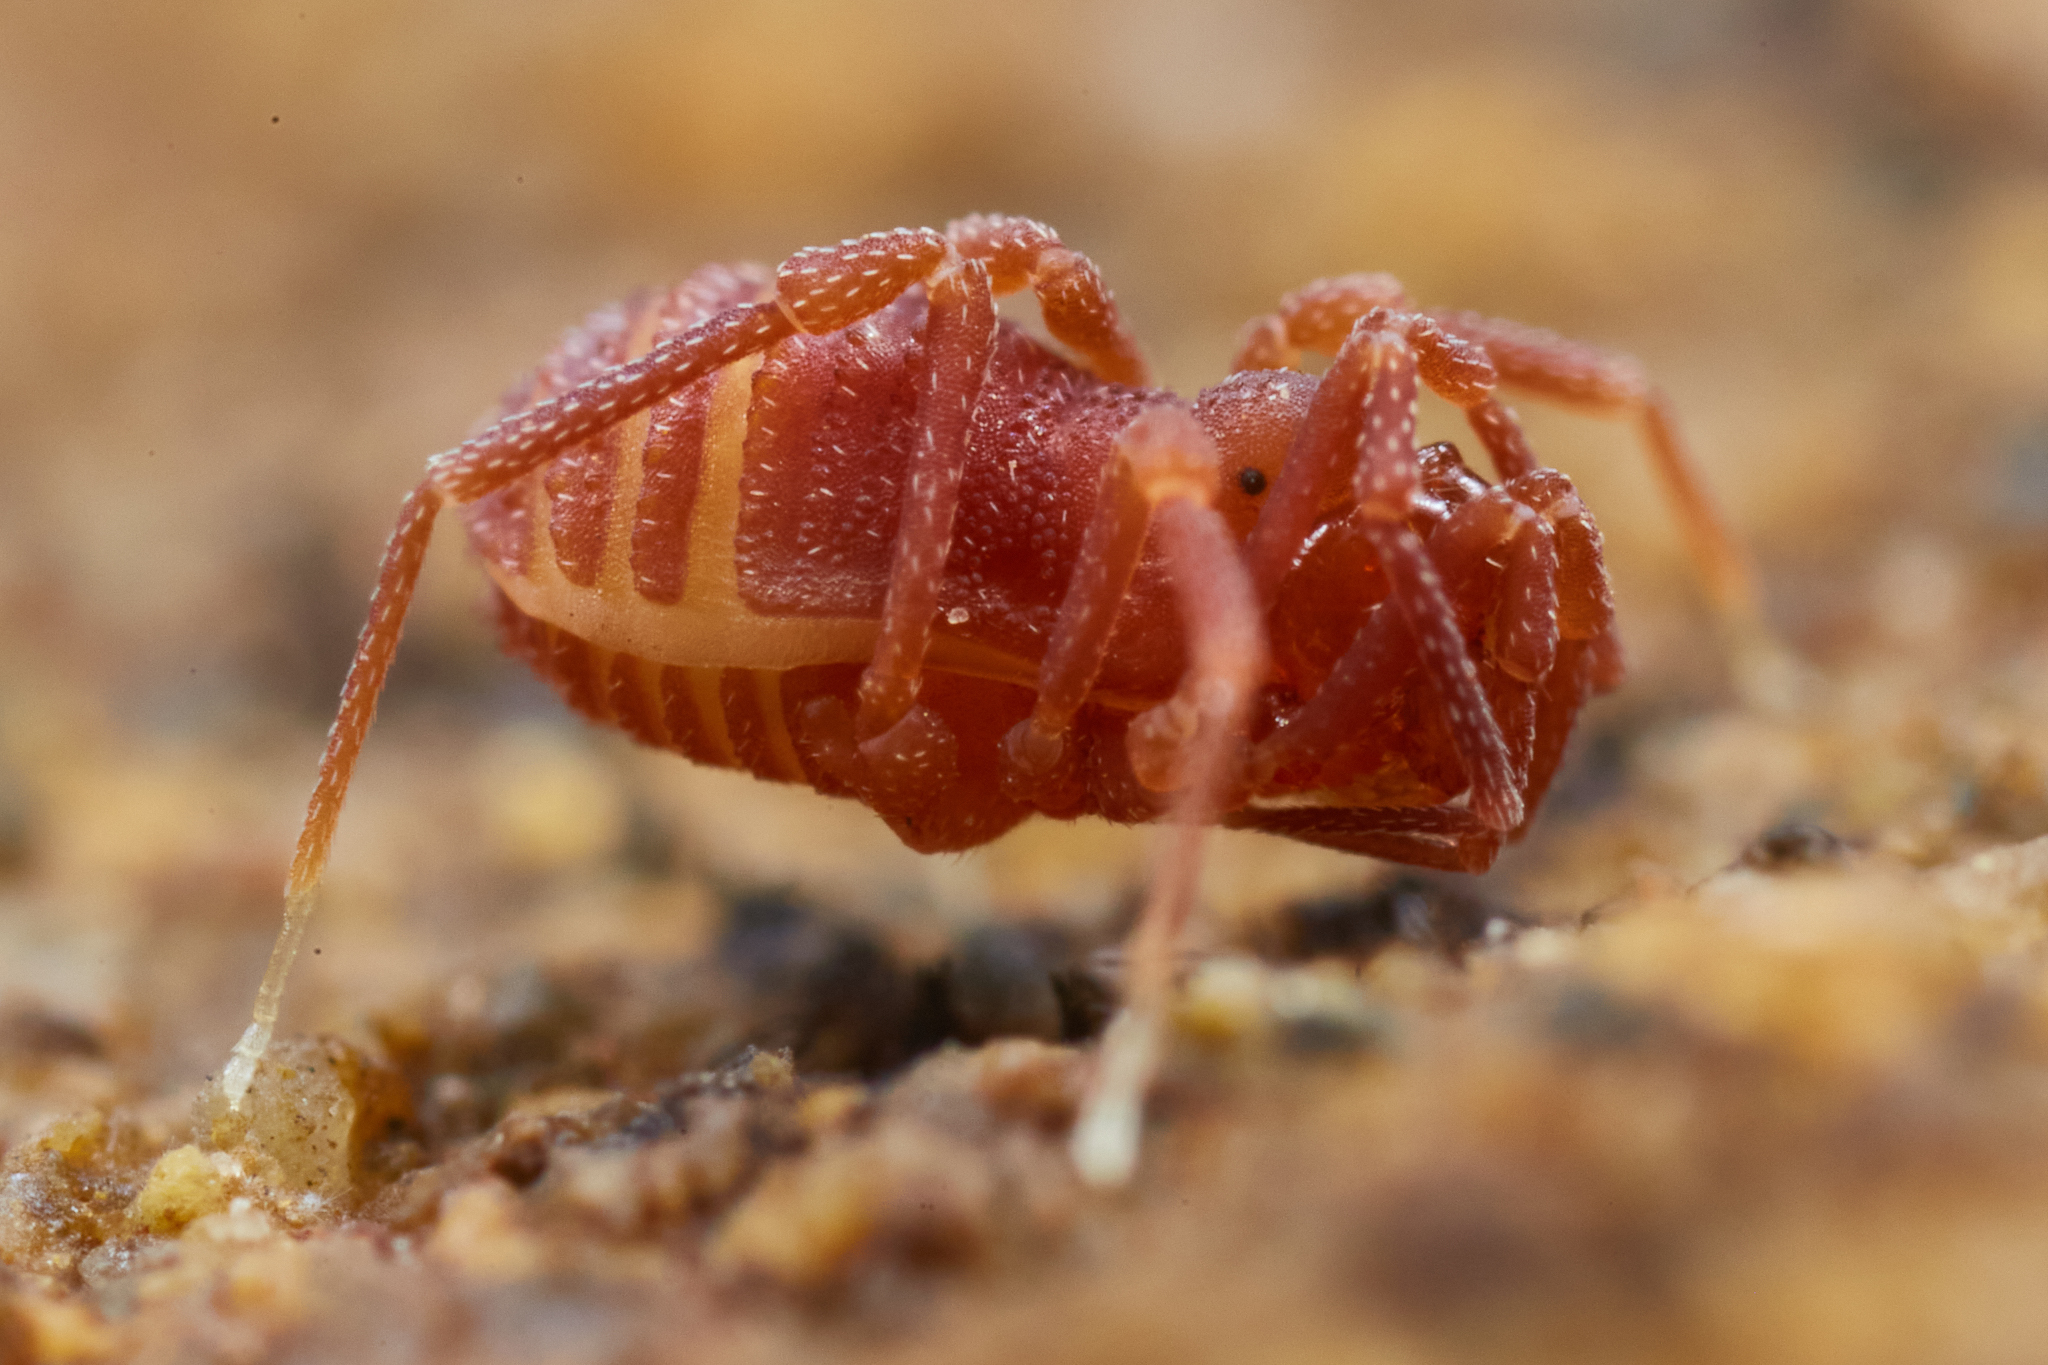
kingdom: Animalia
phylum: Arthropoda
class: Arachnida
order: Opiliones
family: Phalangodidae
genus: Sitalcina
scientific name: Sitalcina californica
